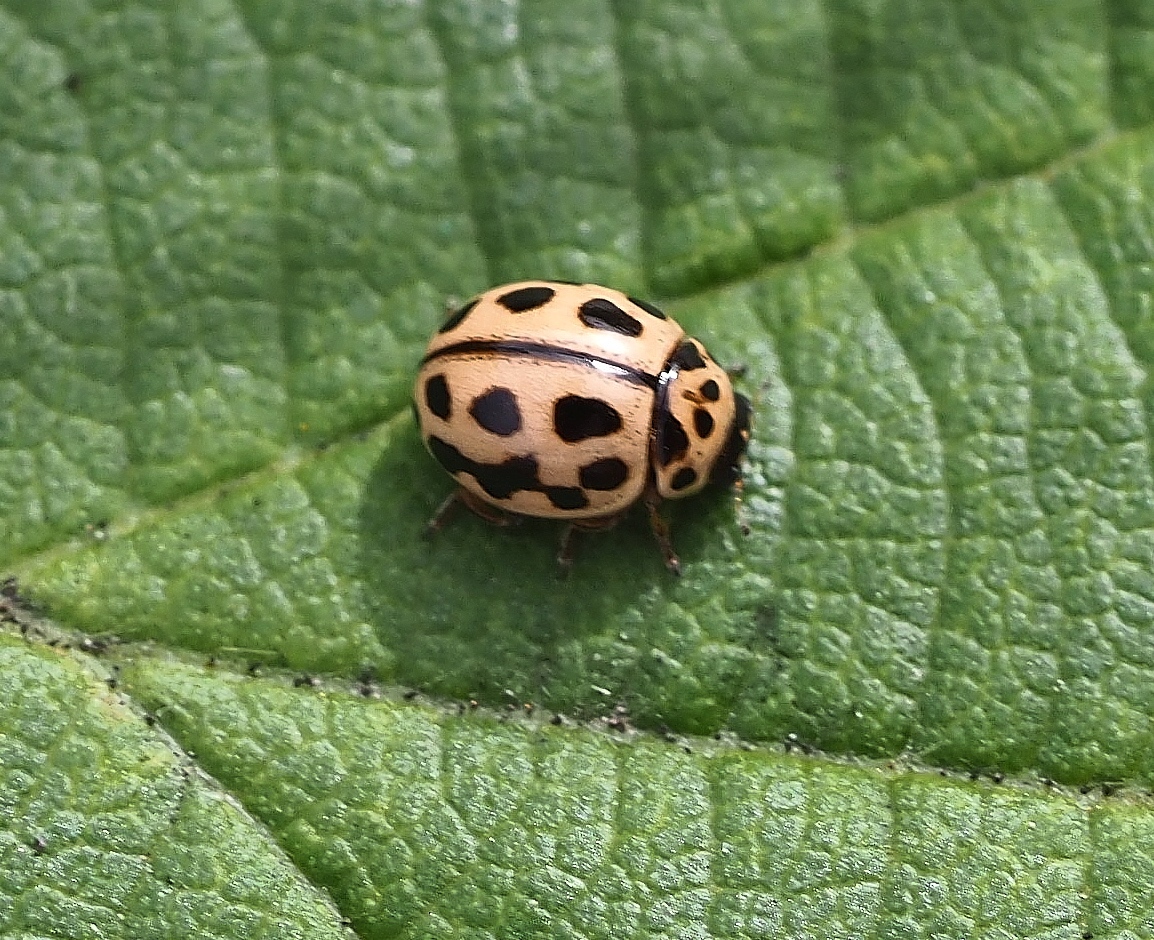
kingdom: Animalia
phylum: Arthropoda
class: Insecta
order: Coleoptera
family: Coccinellidae
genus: Tytthaspis
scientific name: Tytthaspis sedecimpunctata
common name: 16-spot ladybird
